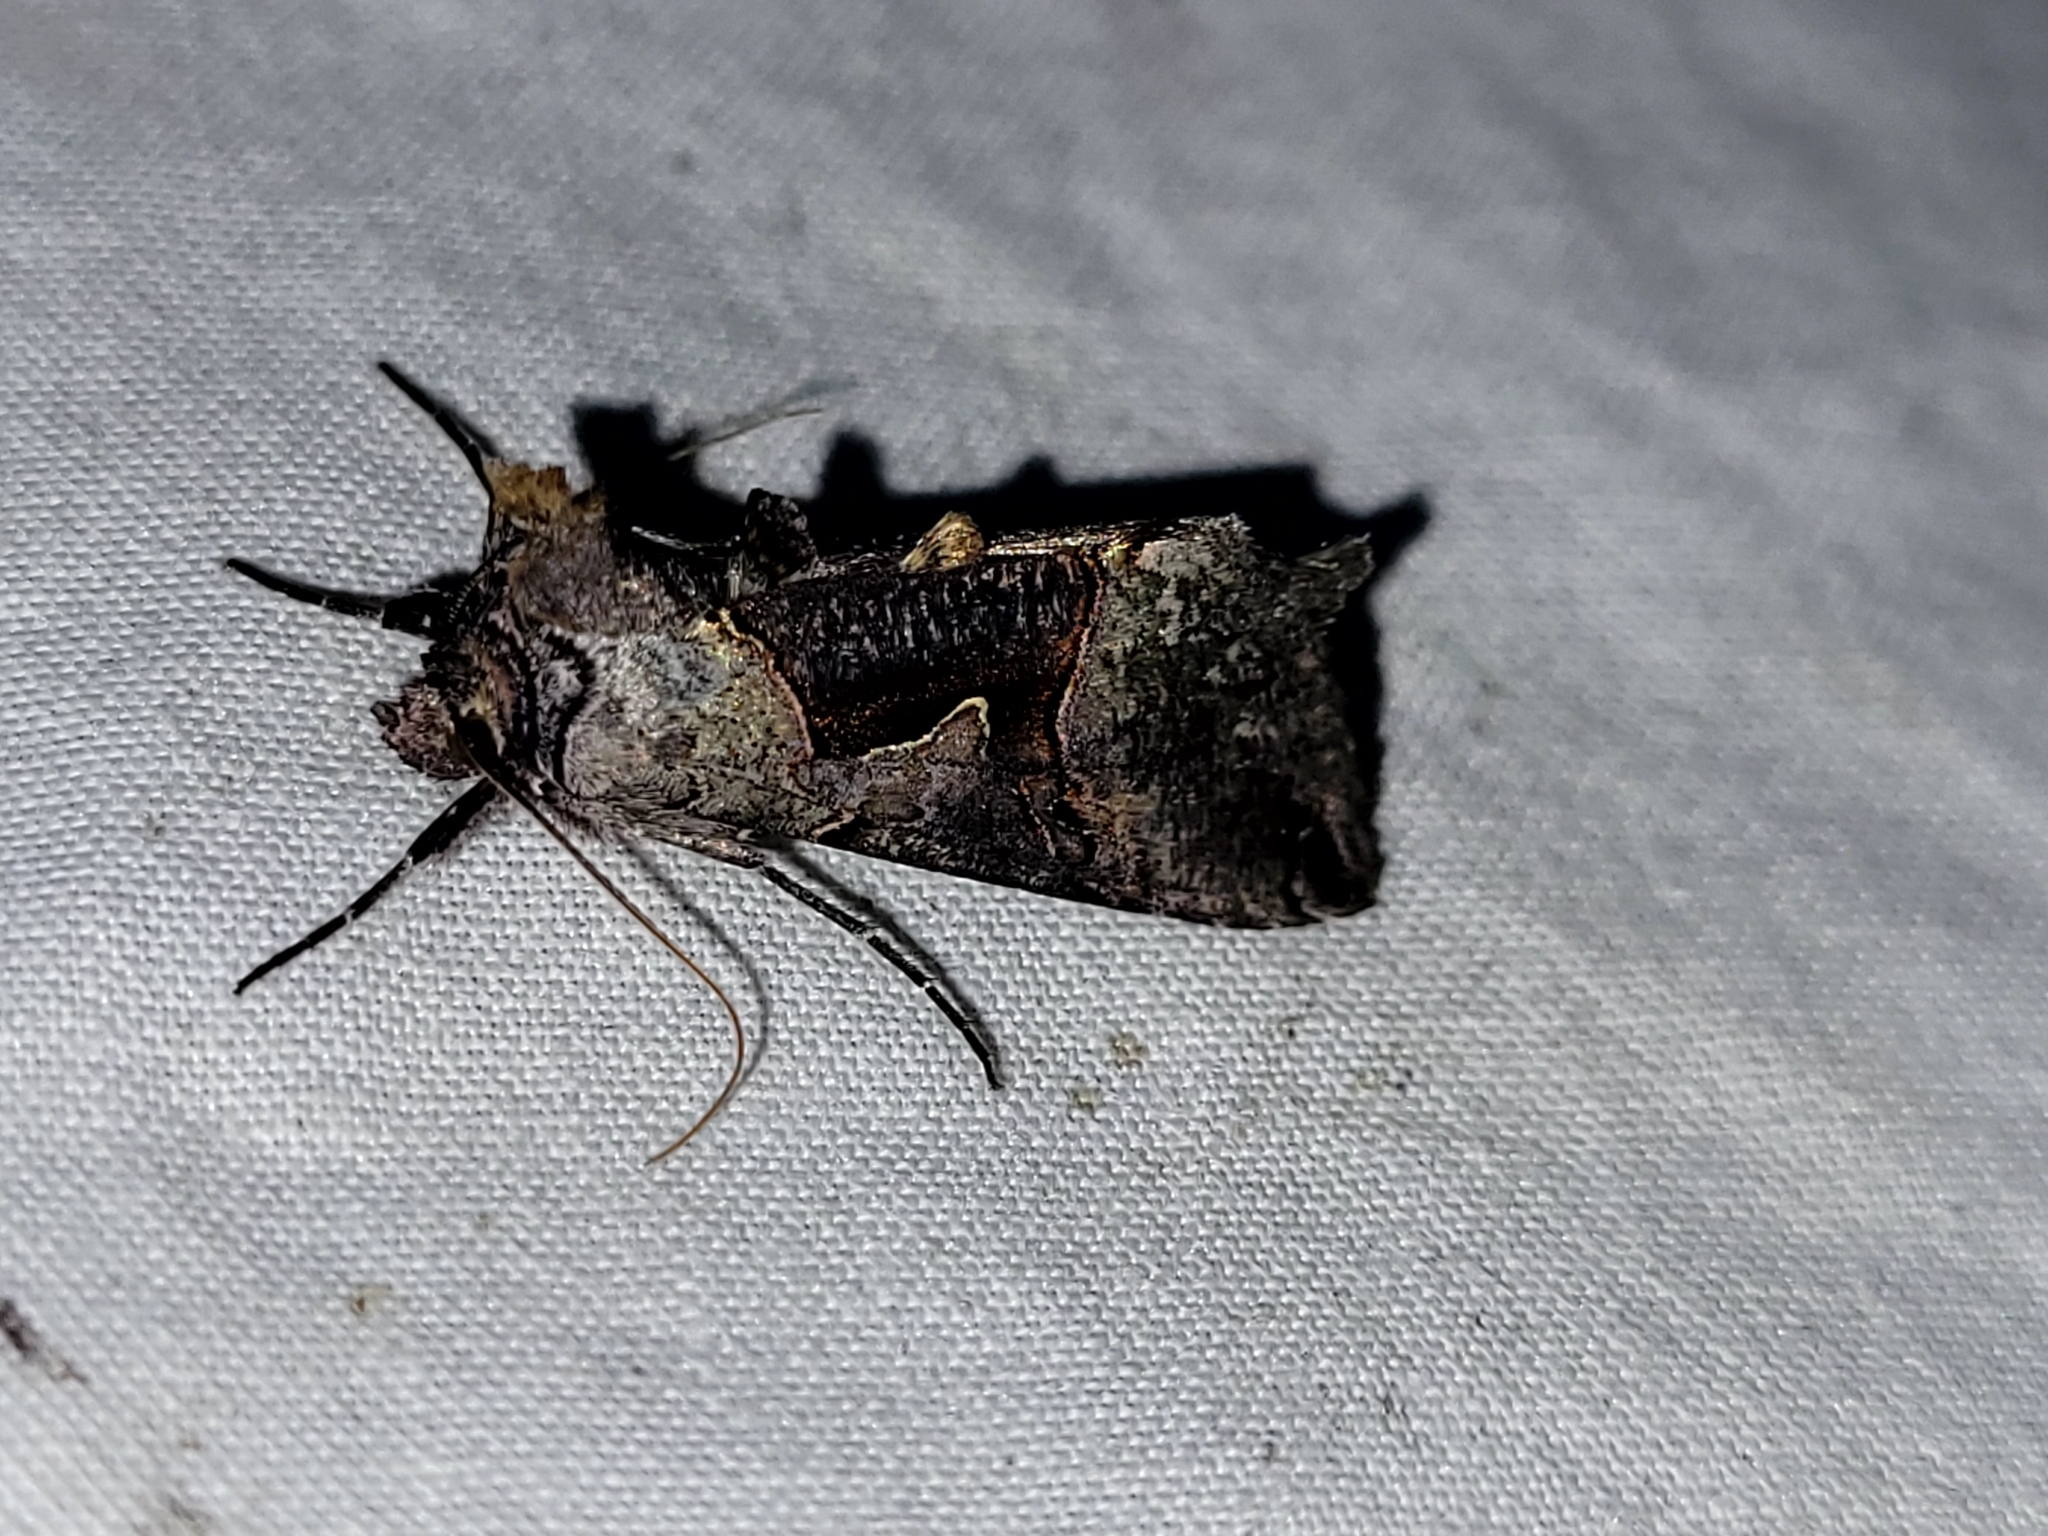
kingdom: Animalia
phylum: Arthropoda
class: Insecta
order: Lepidoptera
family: Noctuidae
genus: Autographa
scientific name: Autographa ampla
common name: Large looper moth
